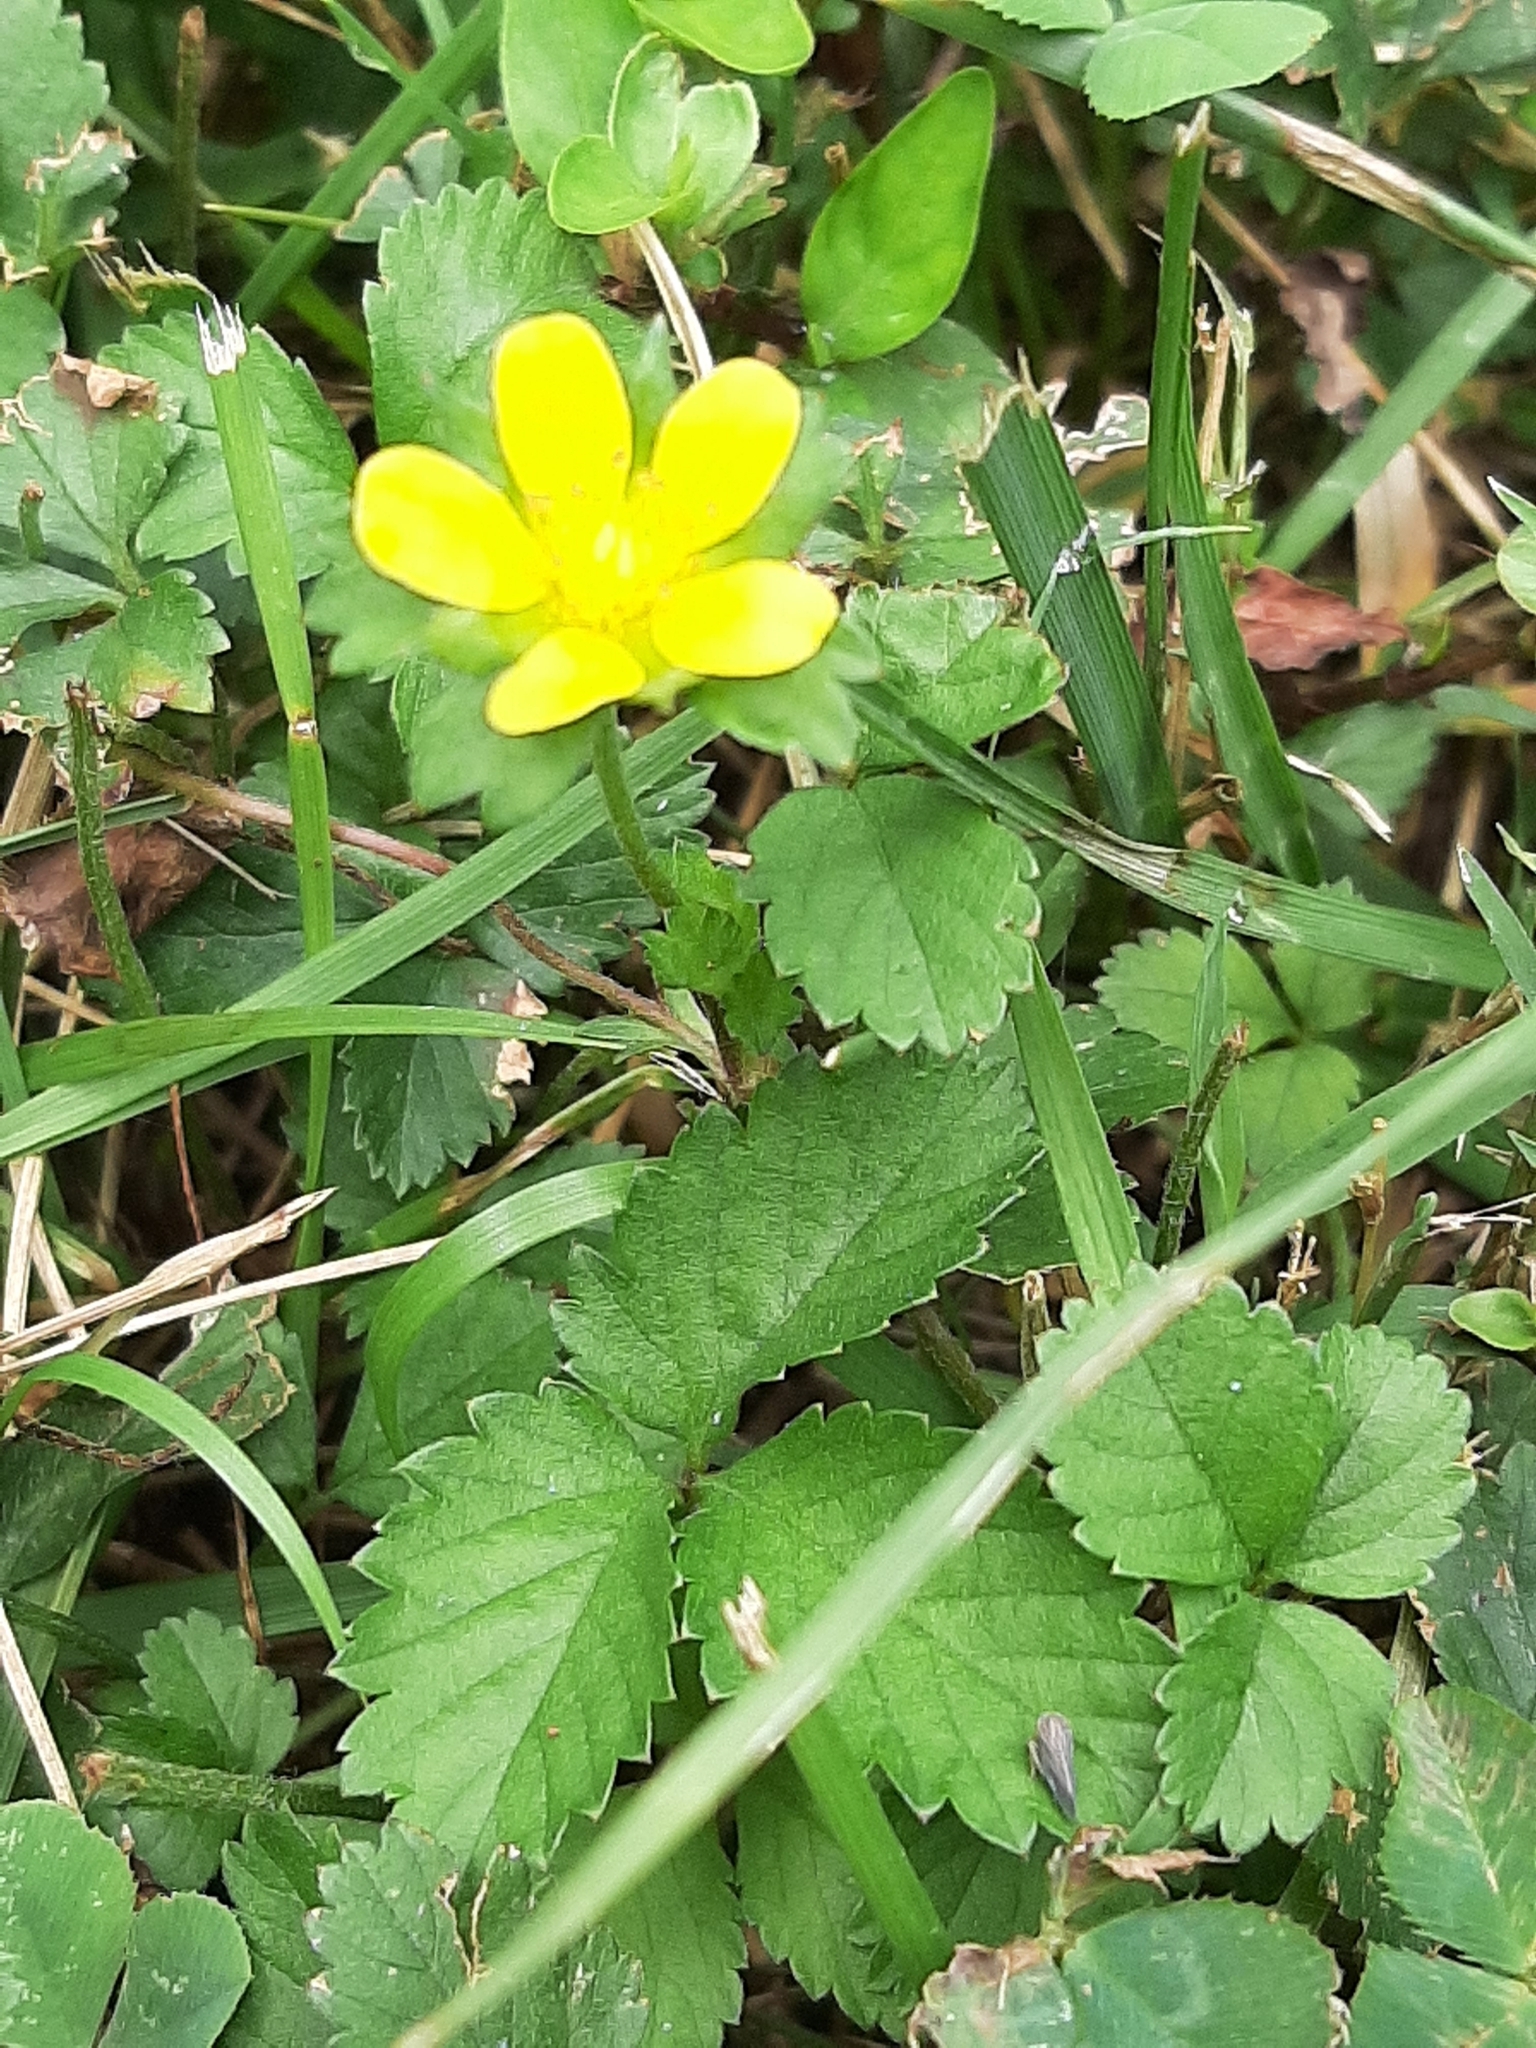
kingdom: Plantae
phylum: Tracheophyta
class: Magnoliopsida
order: Rosales
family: Rosaceae
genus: Potentilla
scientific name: Potentilla indica
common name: Yellow-flowered strawberry
